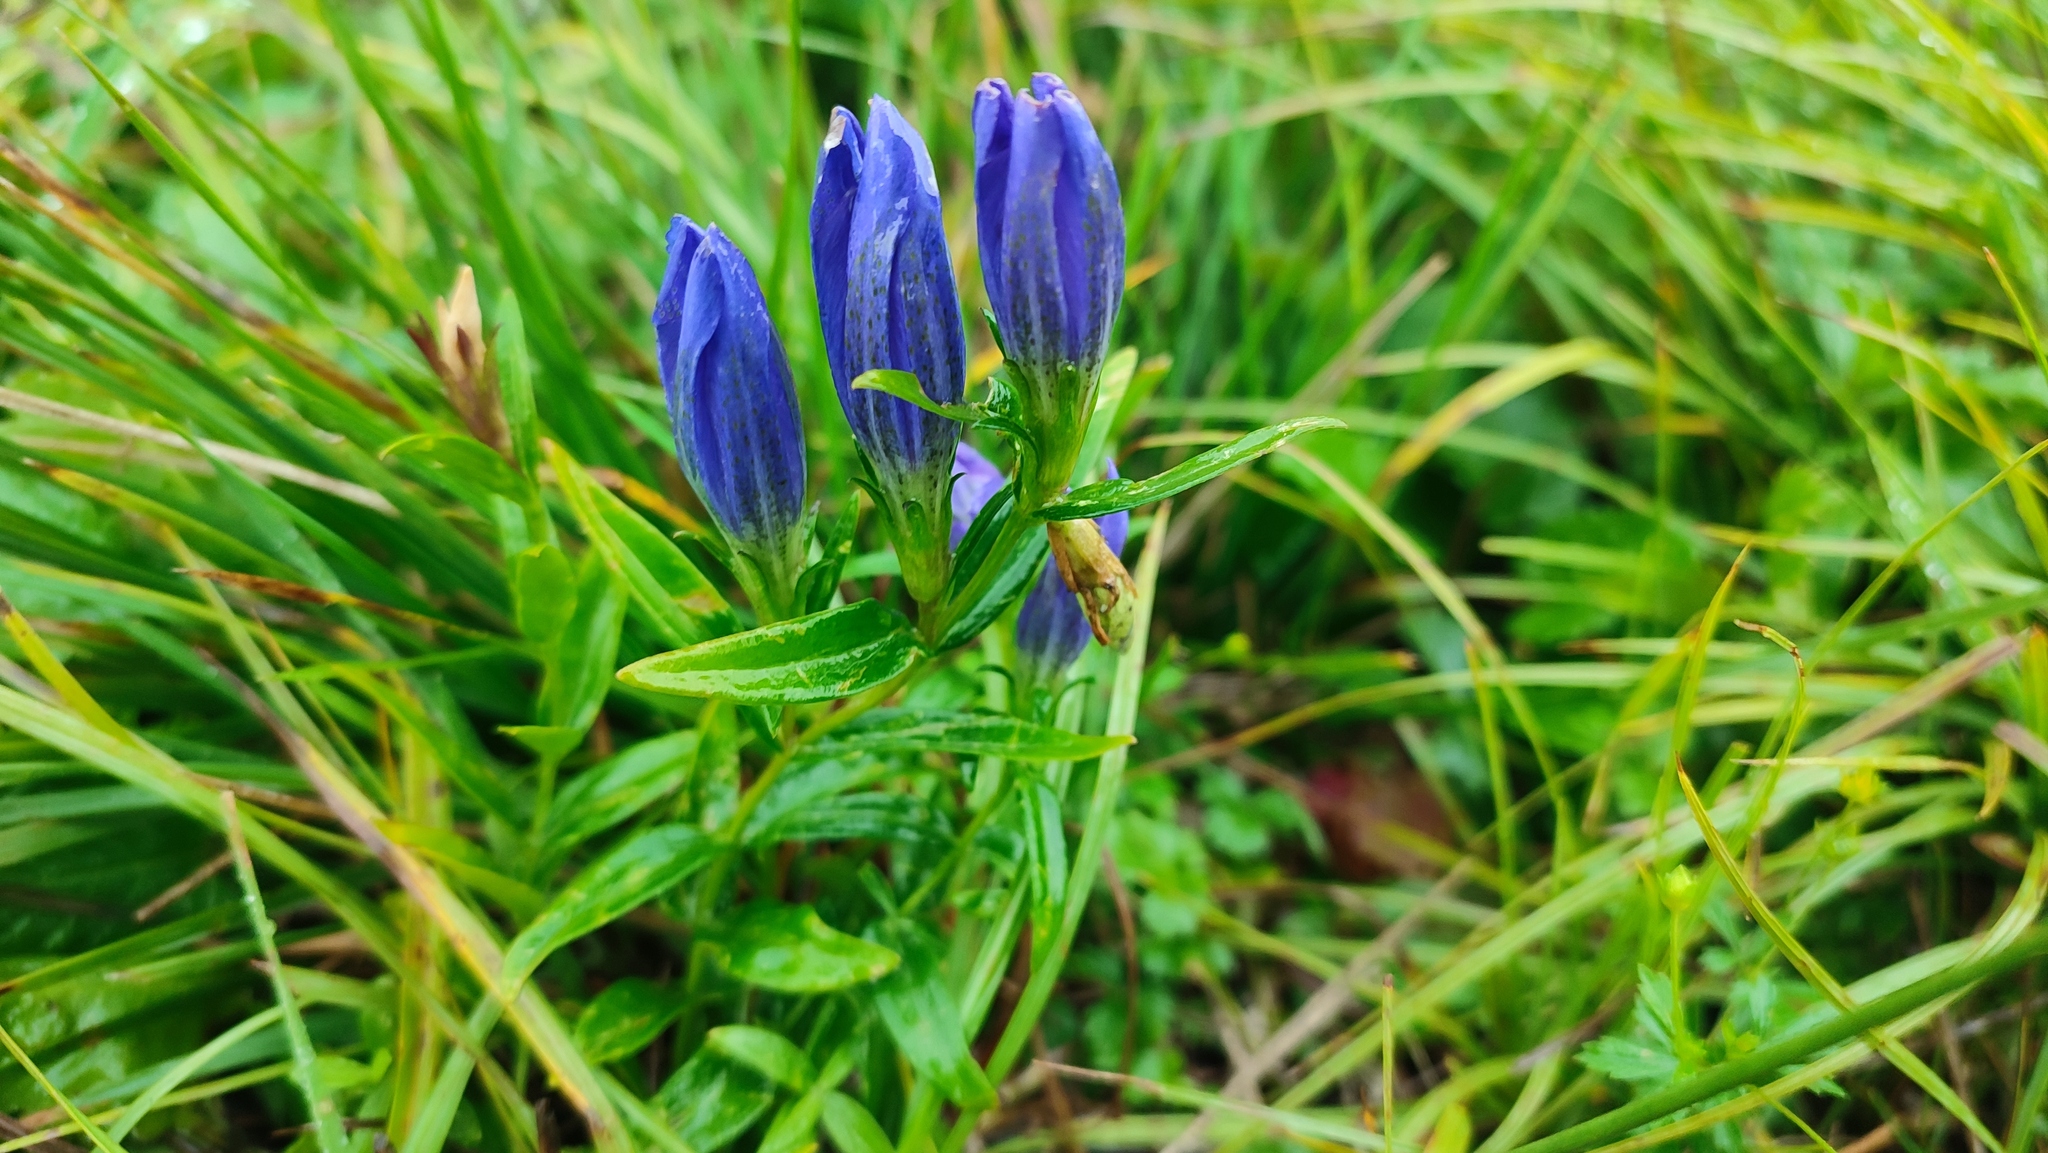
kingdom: Plantae
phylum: Tracheophyta
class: Magnoliopsida
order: Gentianales
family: Gentianaceae
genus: Gentiana
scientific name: Gentiana pneumonanthe
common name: Marsh gentian
